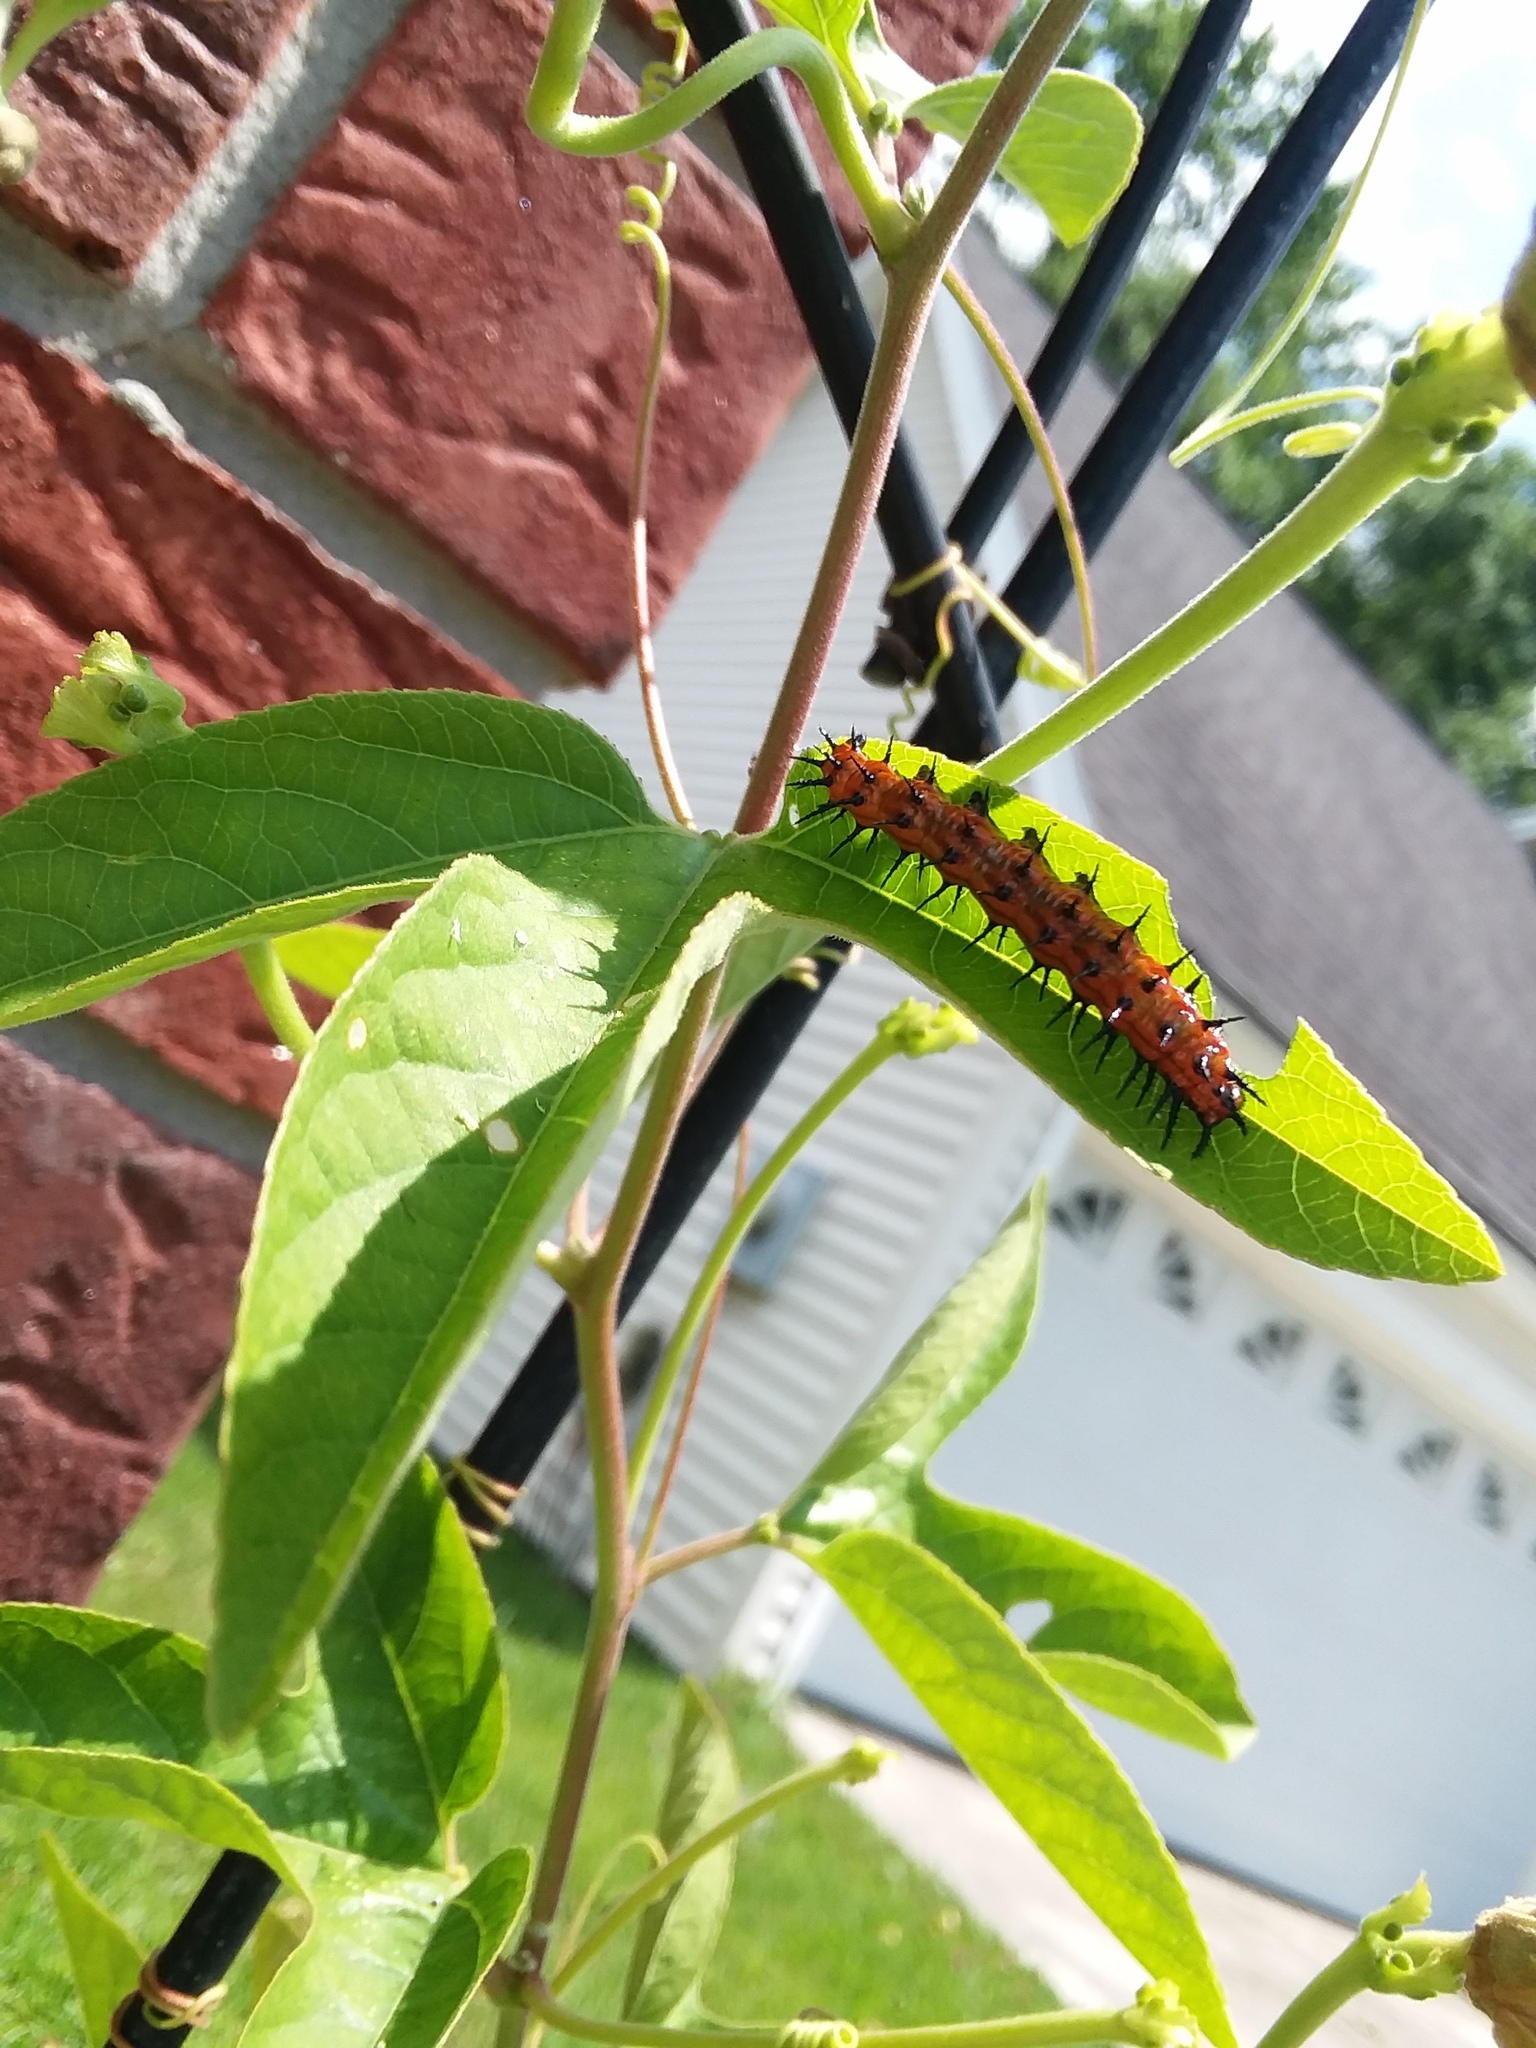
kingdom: Animalia
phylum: Arthropoda
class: Insecta
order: Lepidoptera
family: Nymphalidae
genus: Dione
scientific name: Dione vanillae
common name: Gulf fritillary
